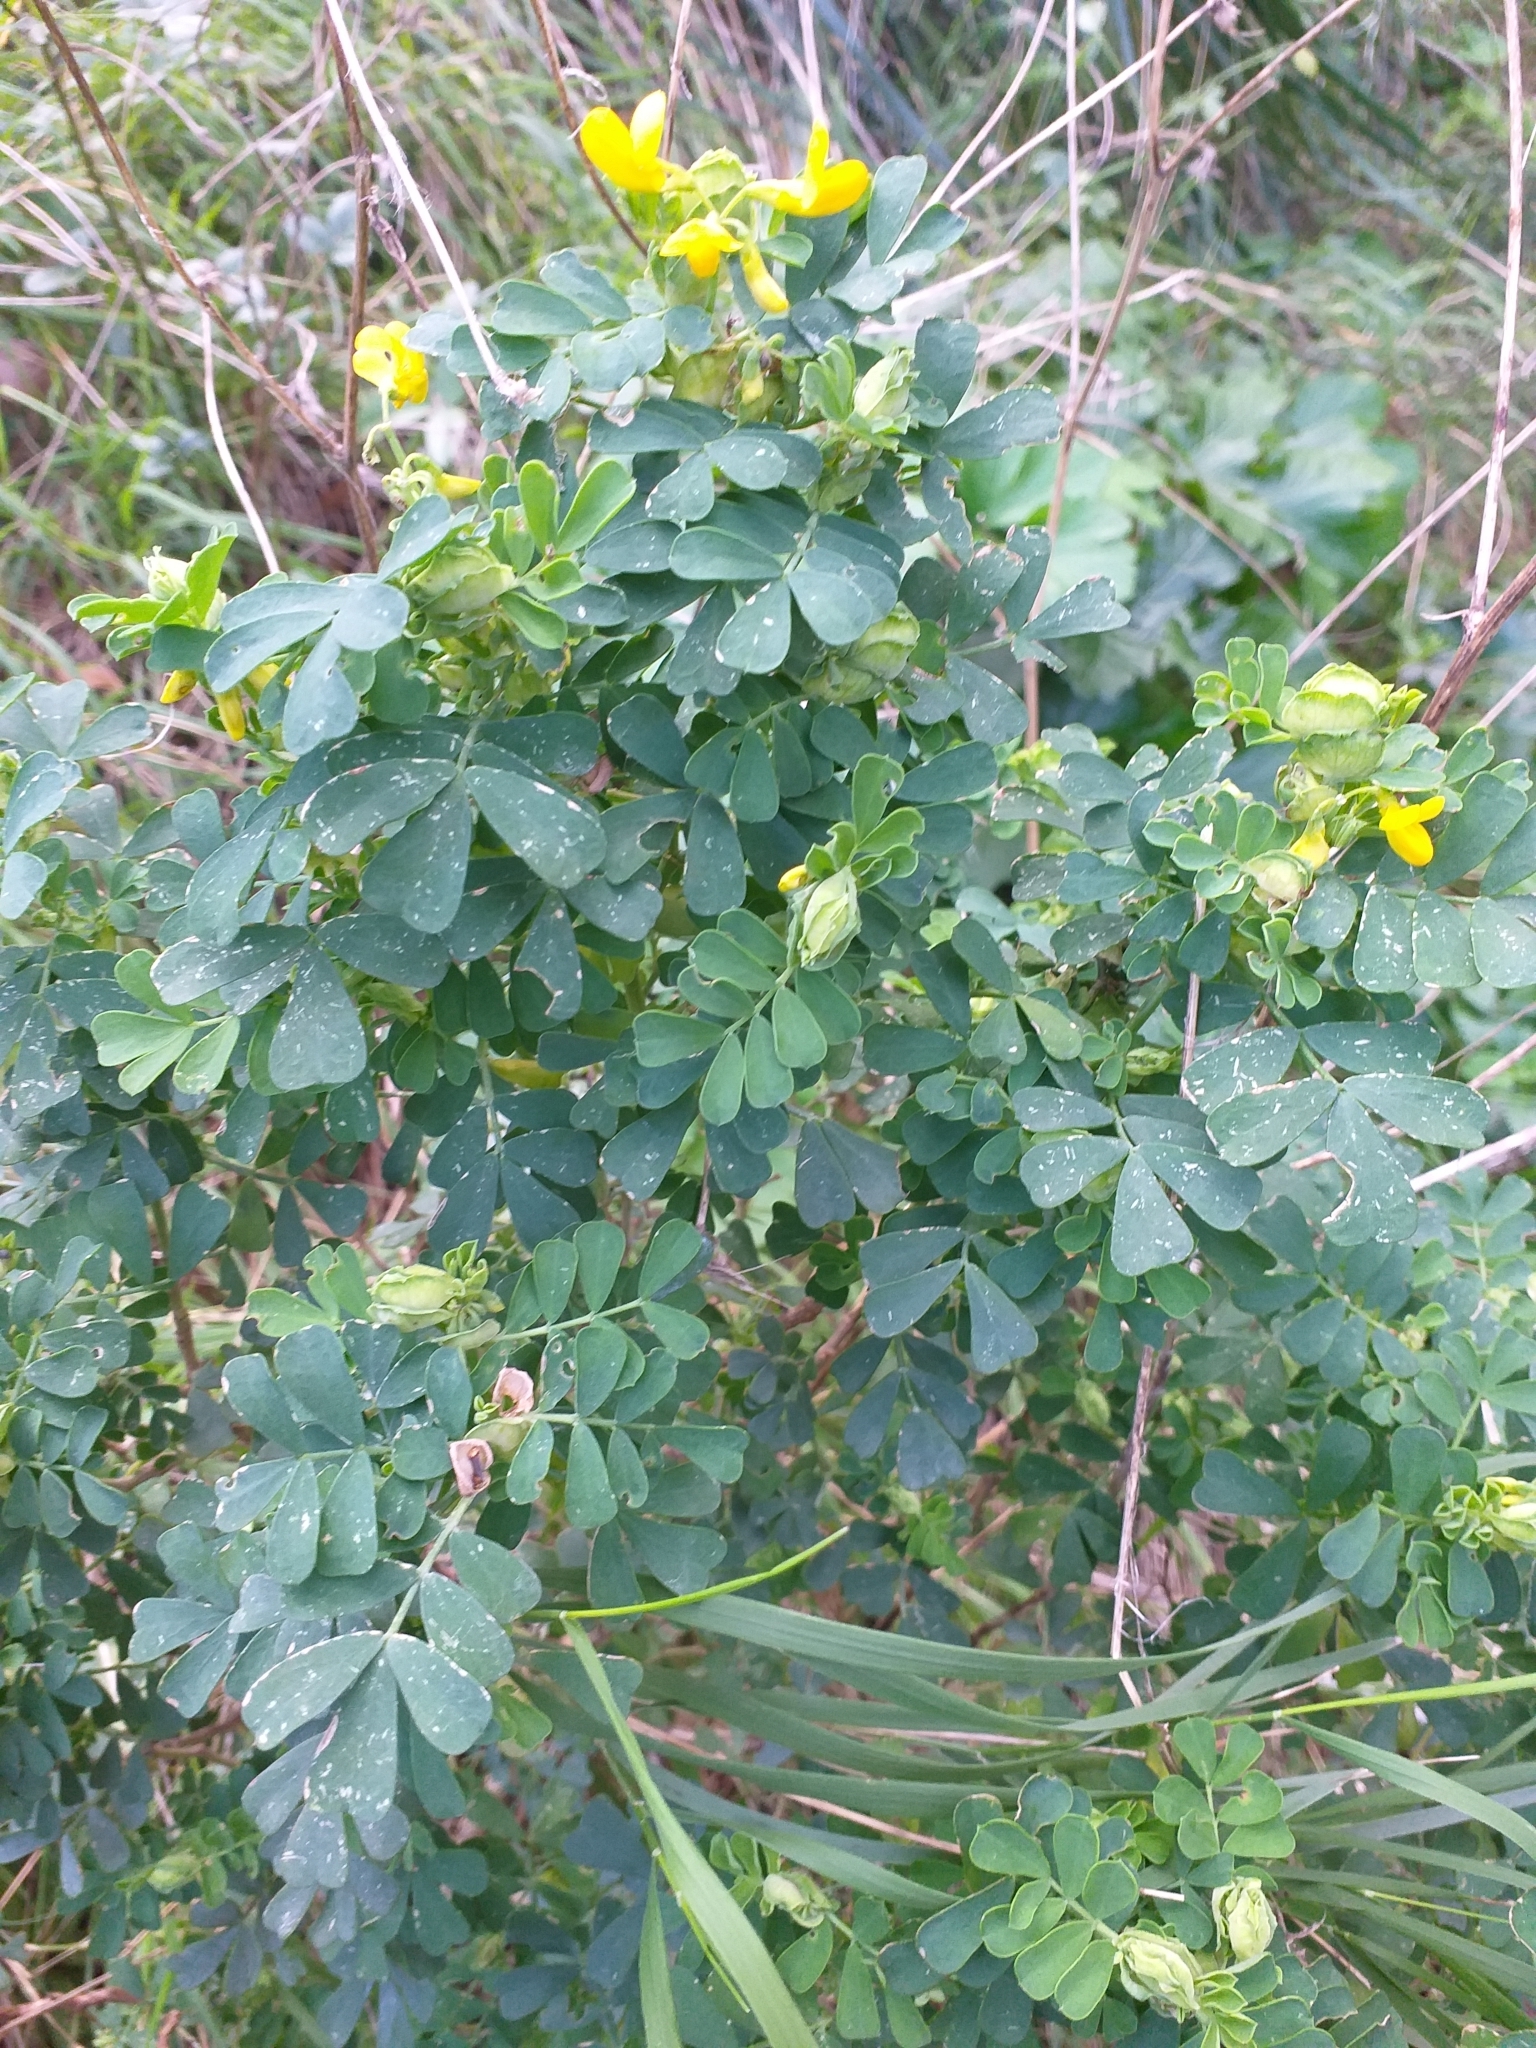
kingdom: Plantae
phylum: Tracheophyta
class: Magnoliopsida
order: Fabales
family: Fabaceae
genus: Coronilla
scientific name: Coronilla valentina
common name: Shrubby scorpion-vetch
